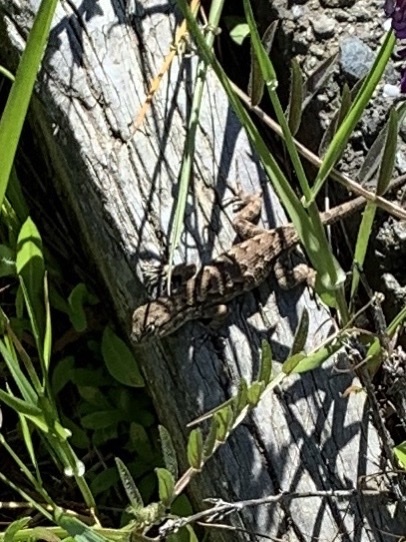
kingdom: Animalia
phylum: Chordata
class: Squamata
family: Phrynosomatidae
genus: Sceloporus
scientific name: Sceloporus occidentalis
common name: Western fence lizard
